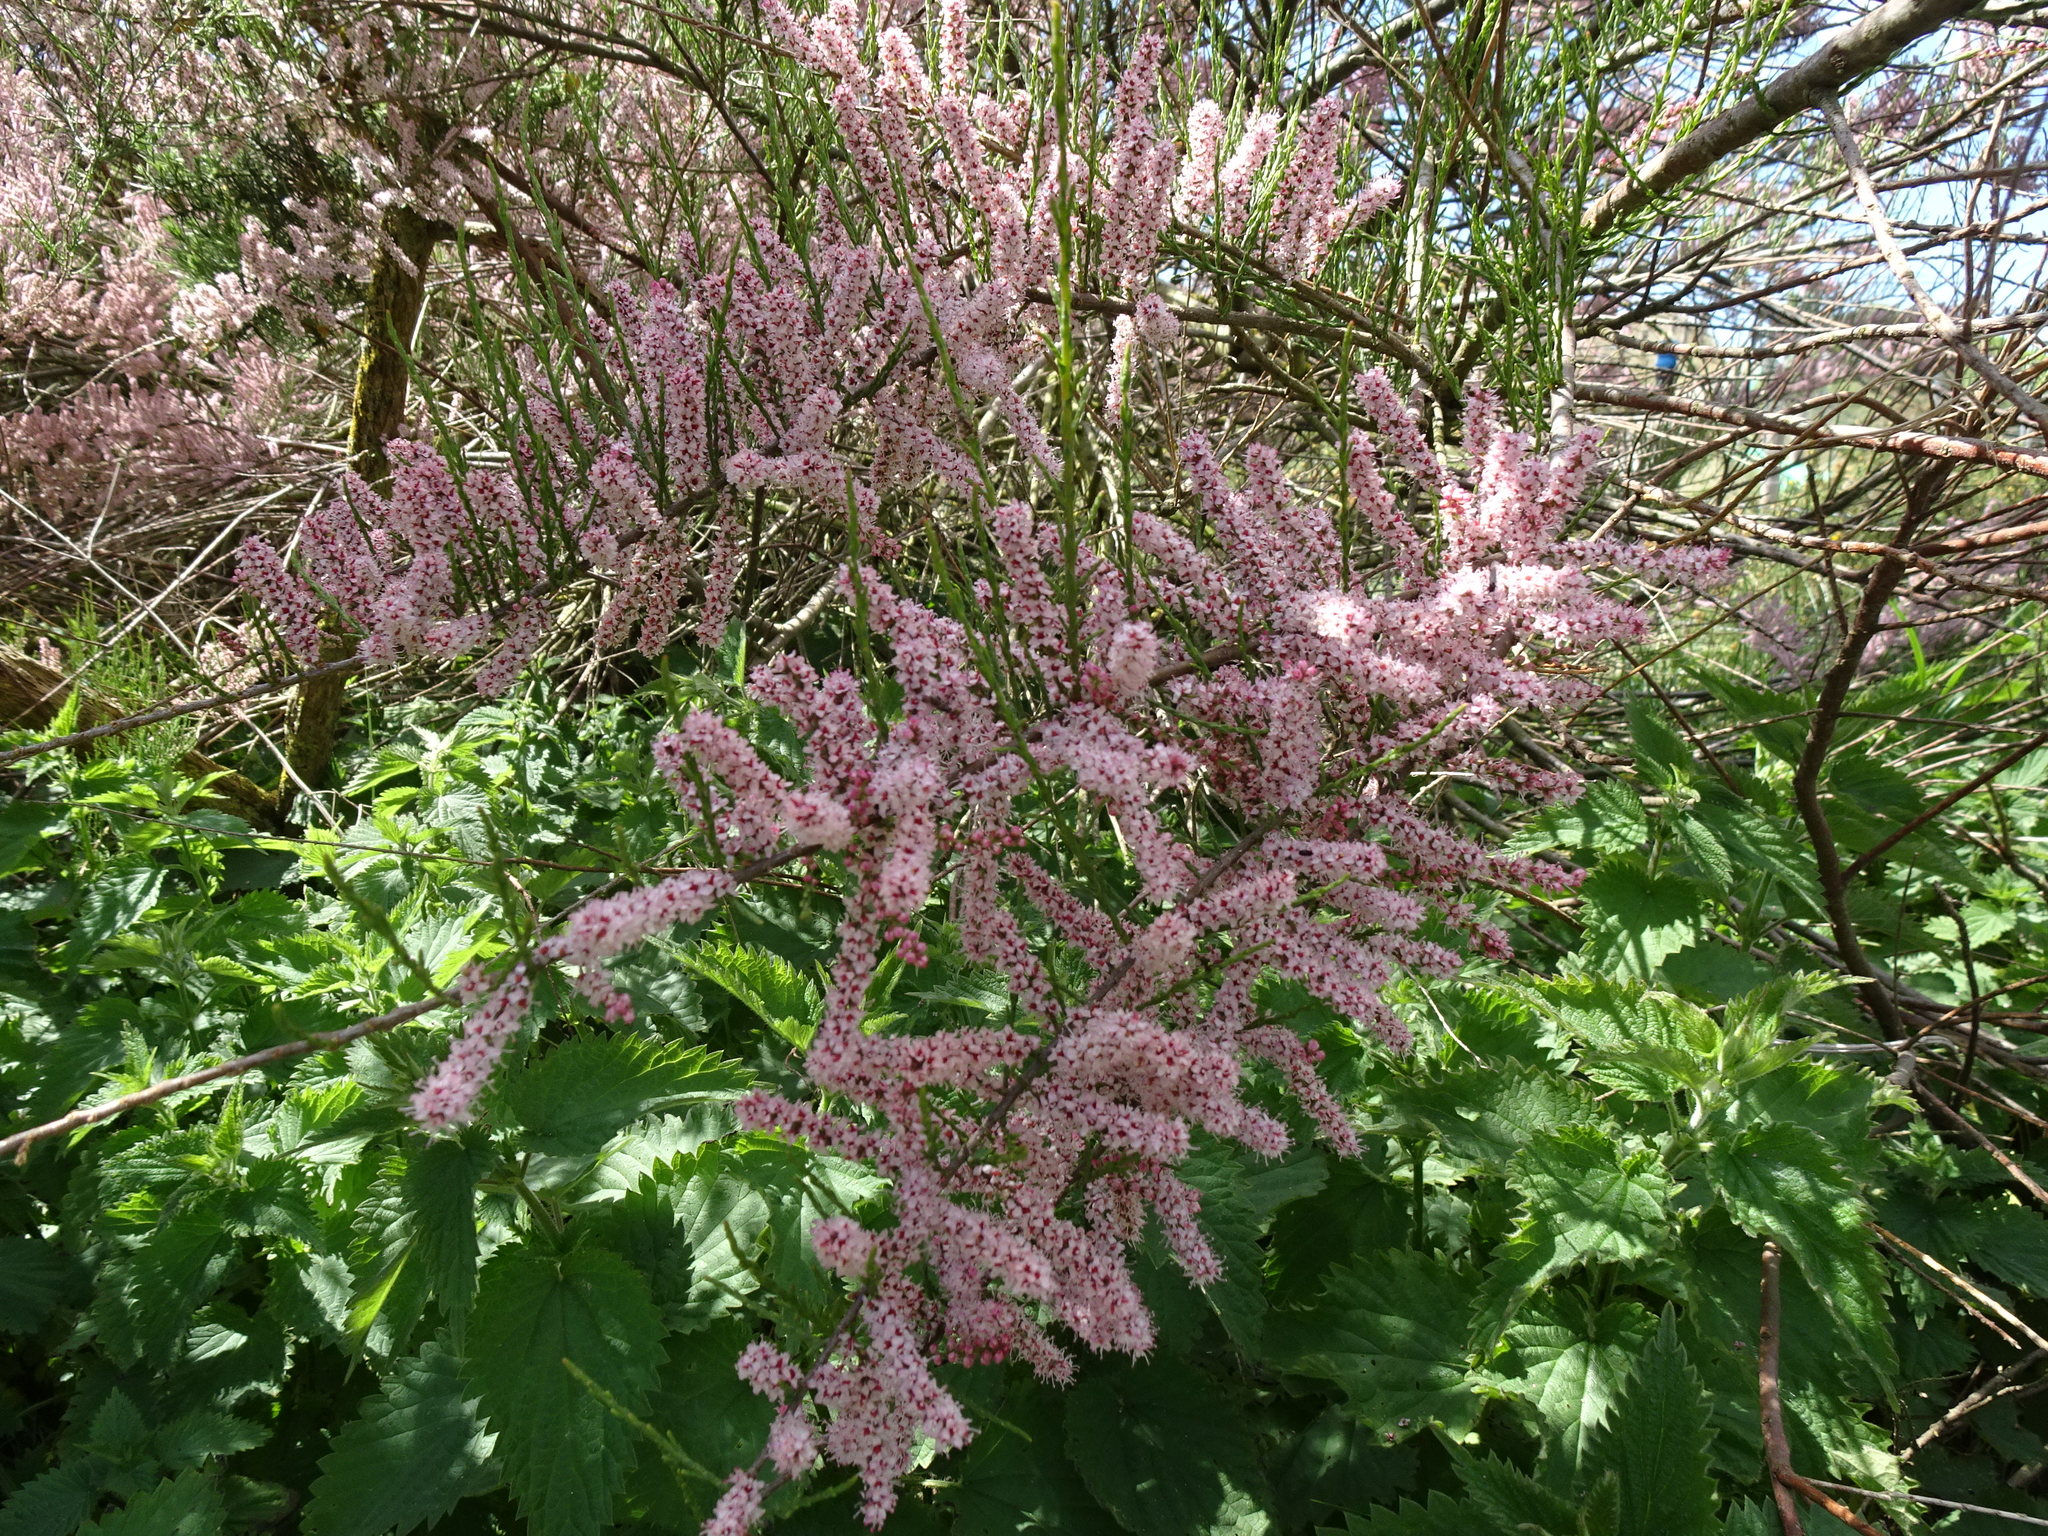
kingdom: Plantae
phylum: Tracheophyta
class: Magnoliopsida
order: Caryophyllales
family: Tamaricaceae
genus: Tamarix
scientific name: Tamarix gallica
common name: Tamarisk
